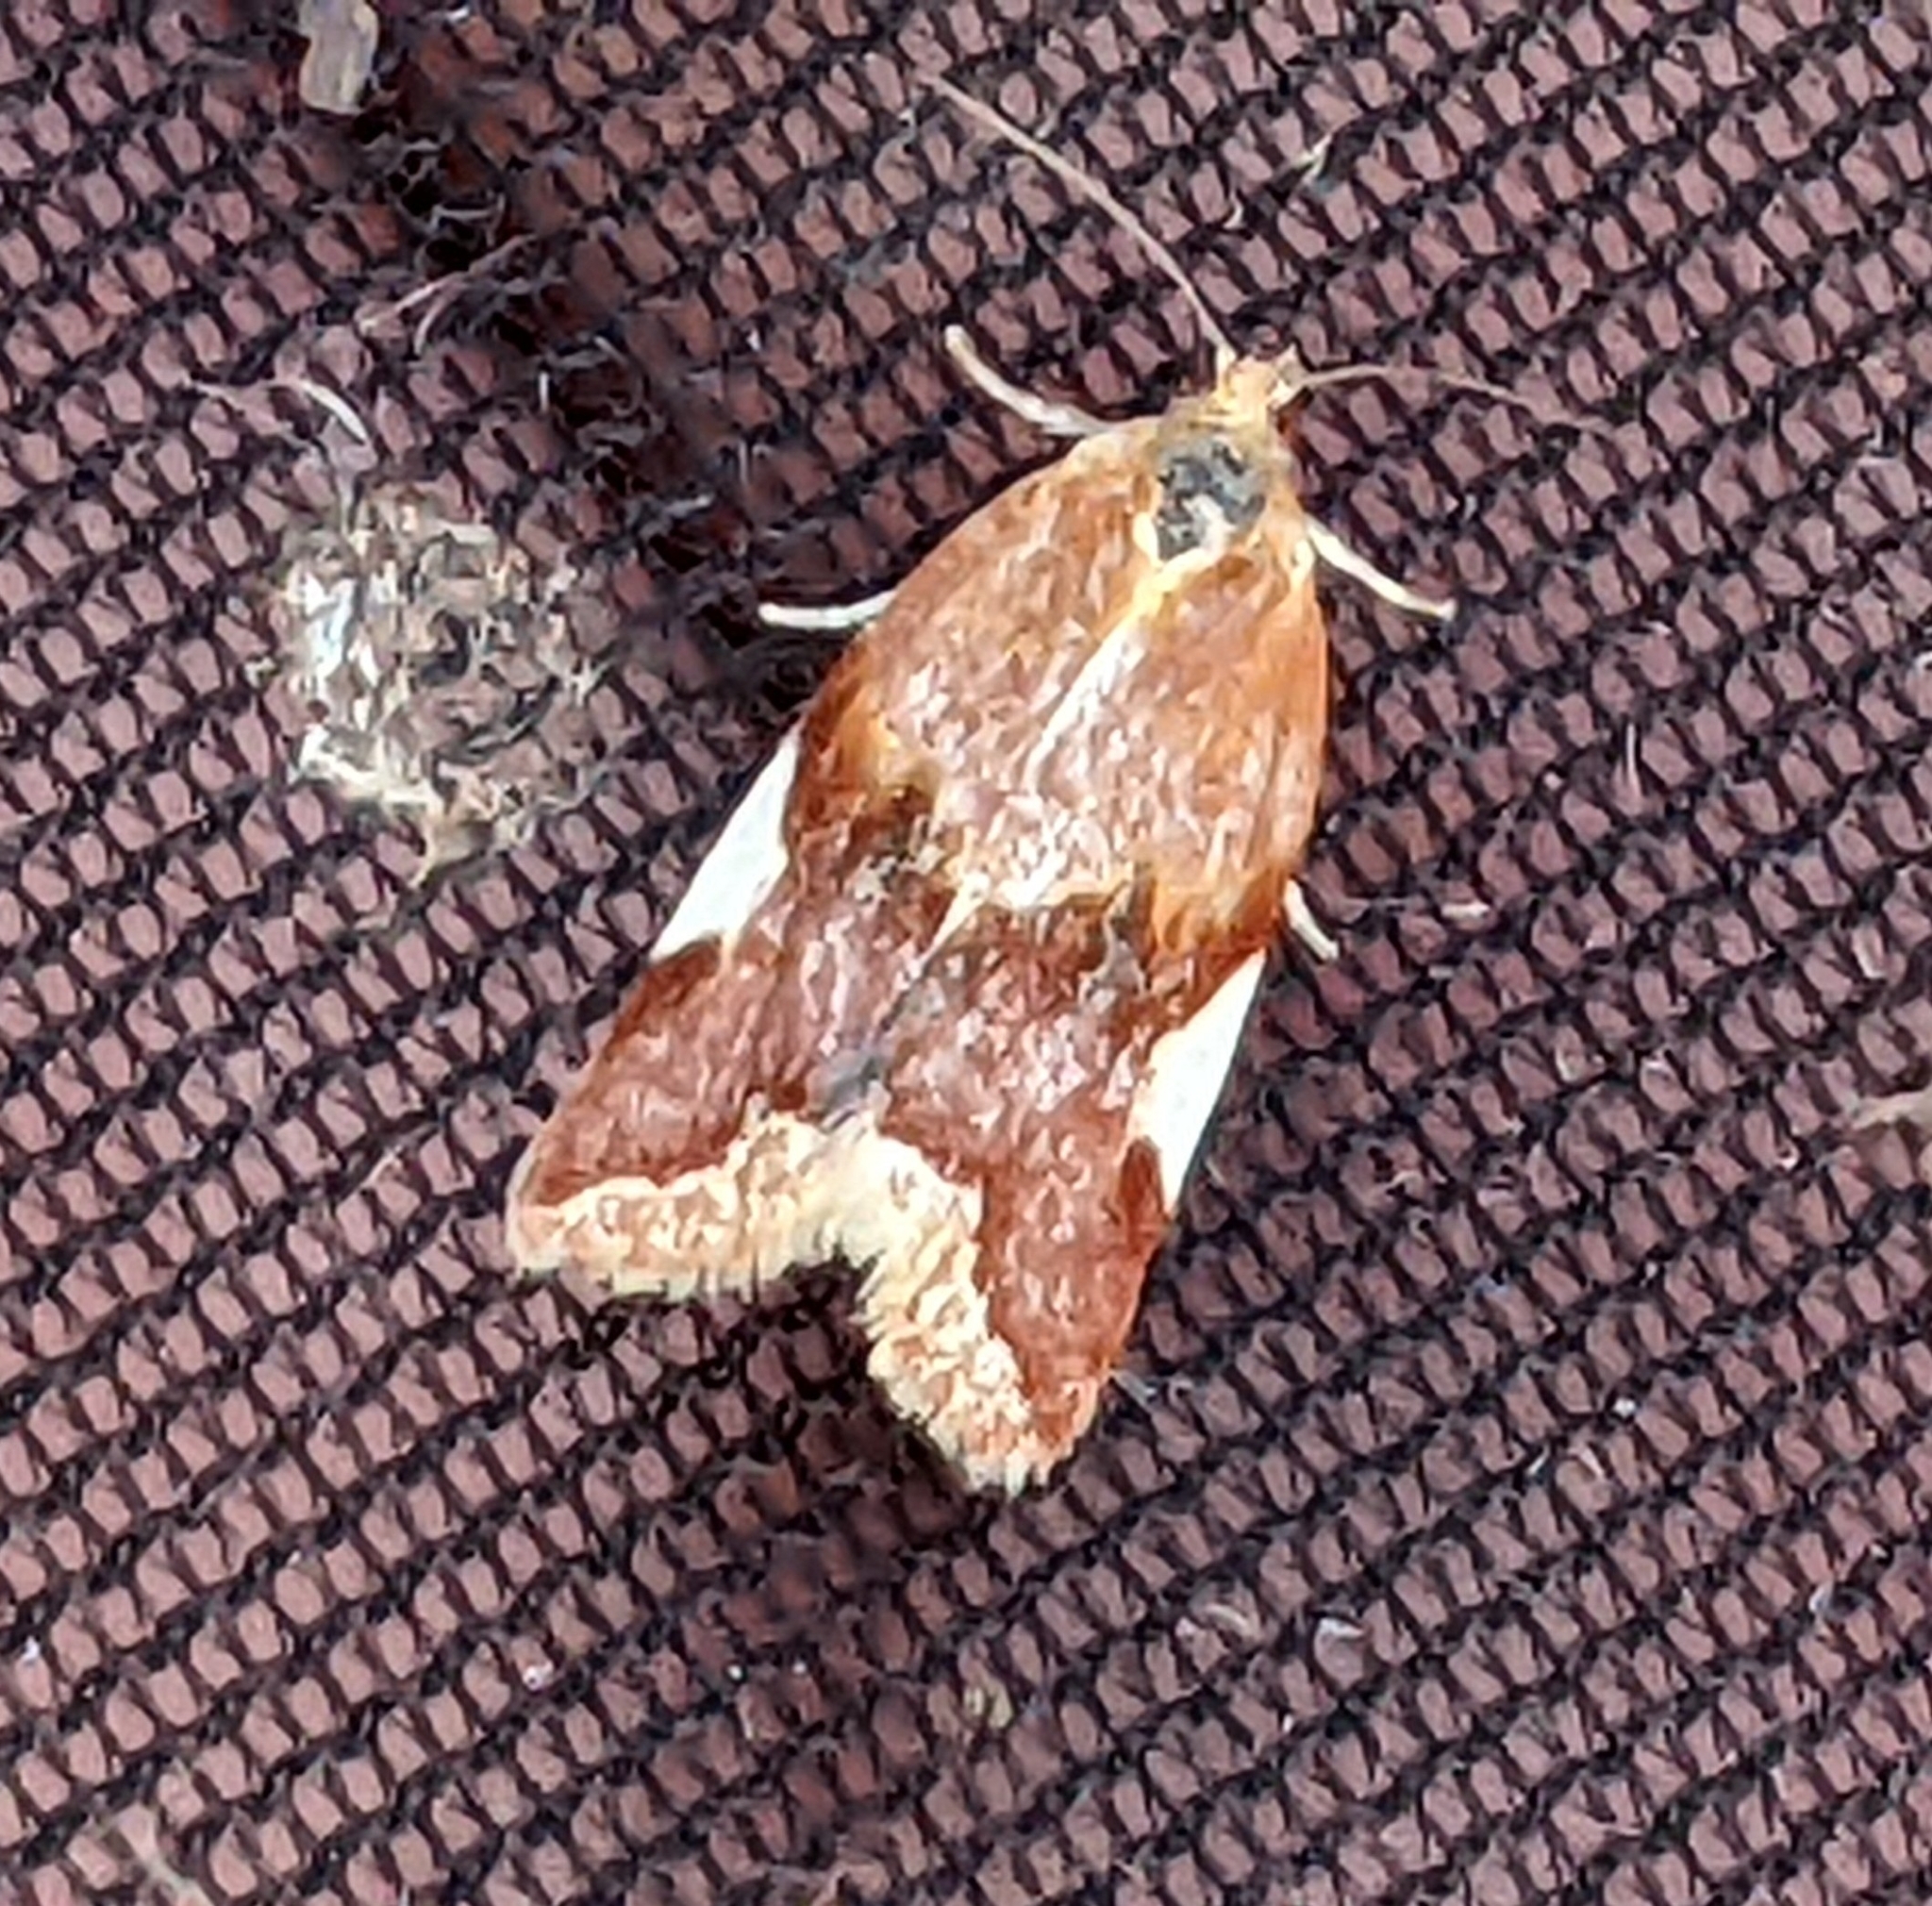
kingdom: Animalia
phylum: Arthropoda
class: Insecta
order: Lepidoptera
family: Tortricidae
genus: Clepsis
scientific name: Clepsis persicana
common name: White triangle tortrix
